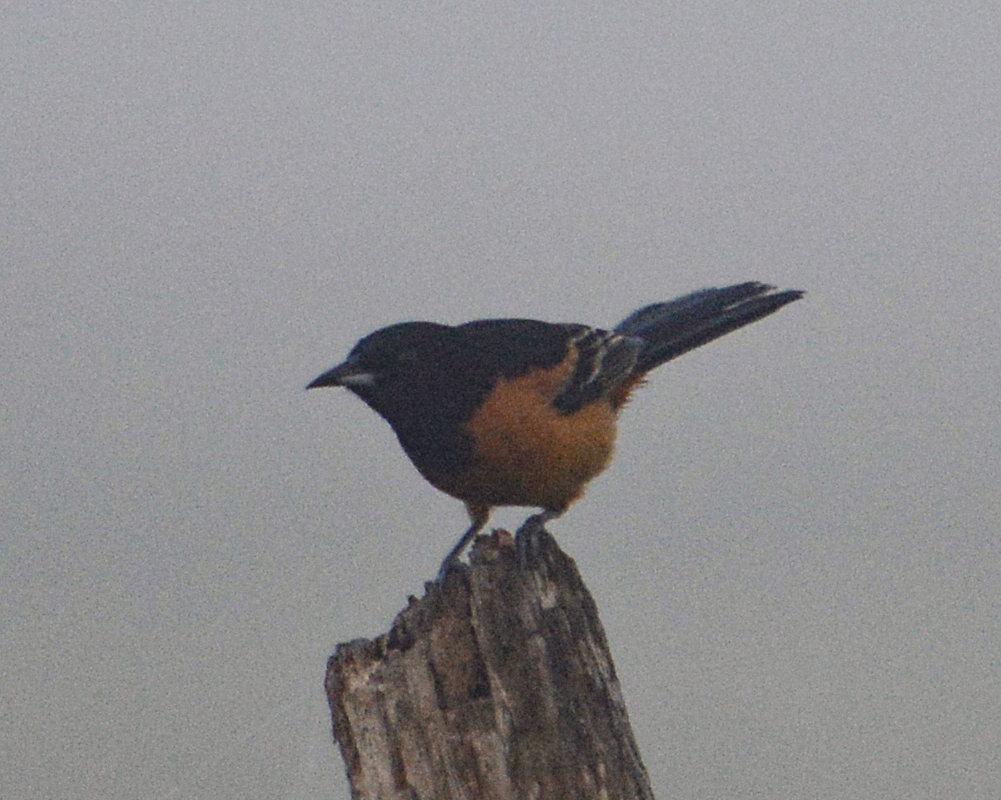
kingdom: Animalia
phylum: Chordata
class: Aves
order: Passeriformes
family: Icteridae
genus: Icterus
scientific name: Icterus spurius
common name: Orchard oriole
